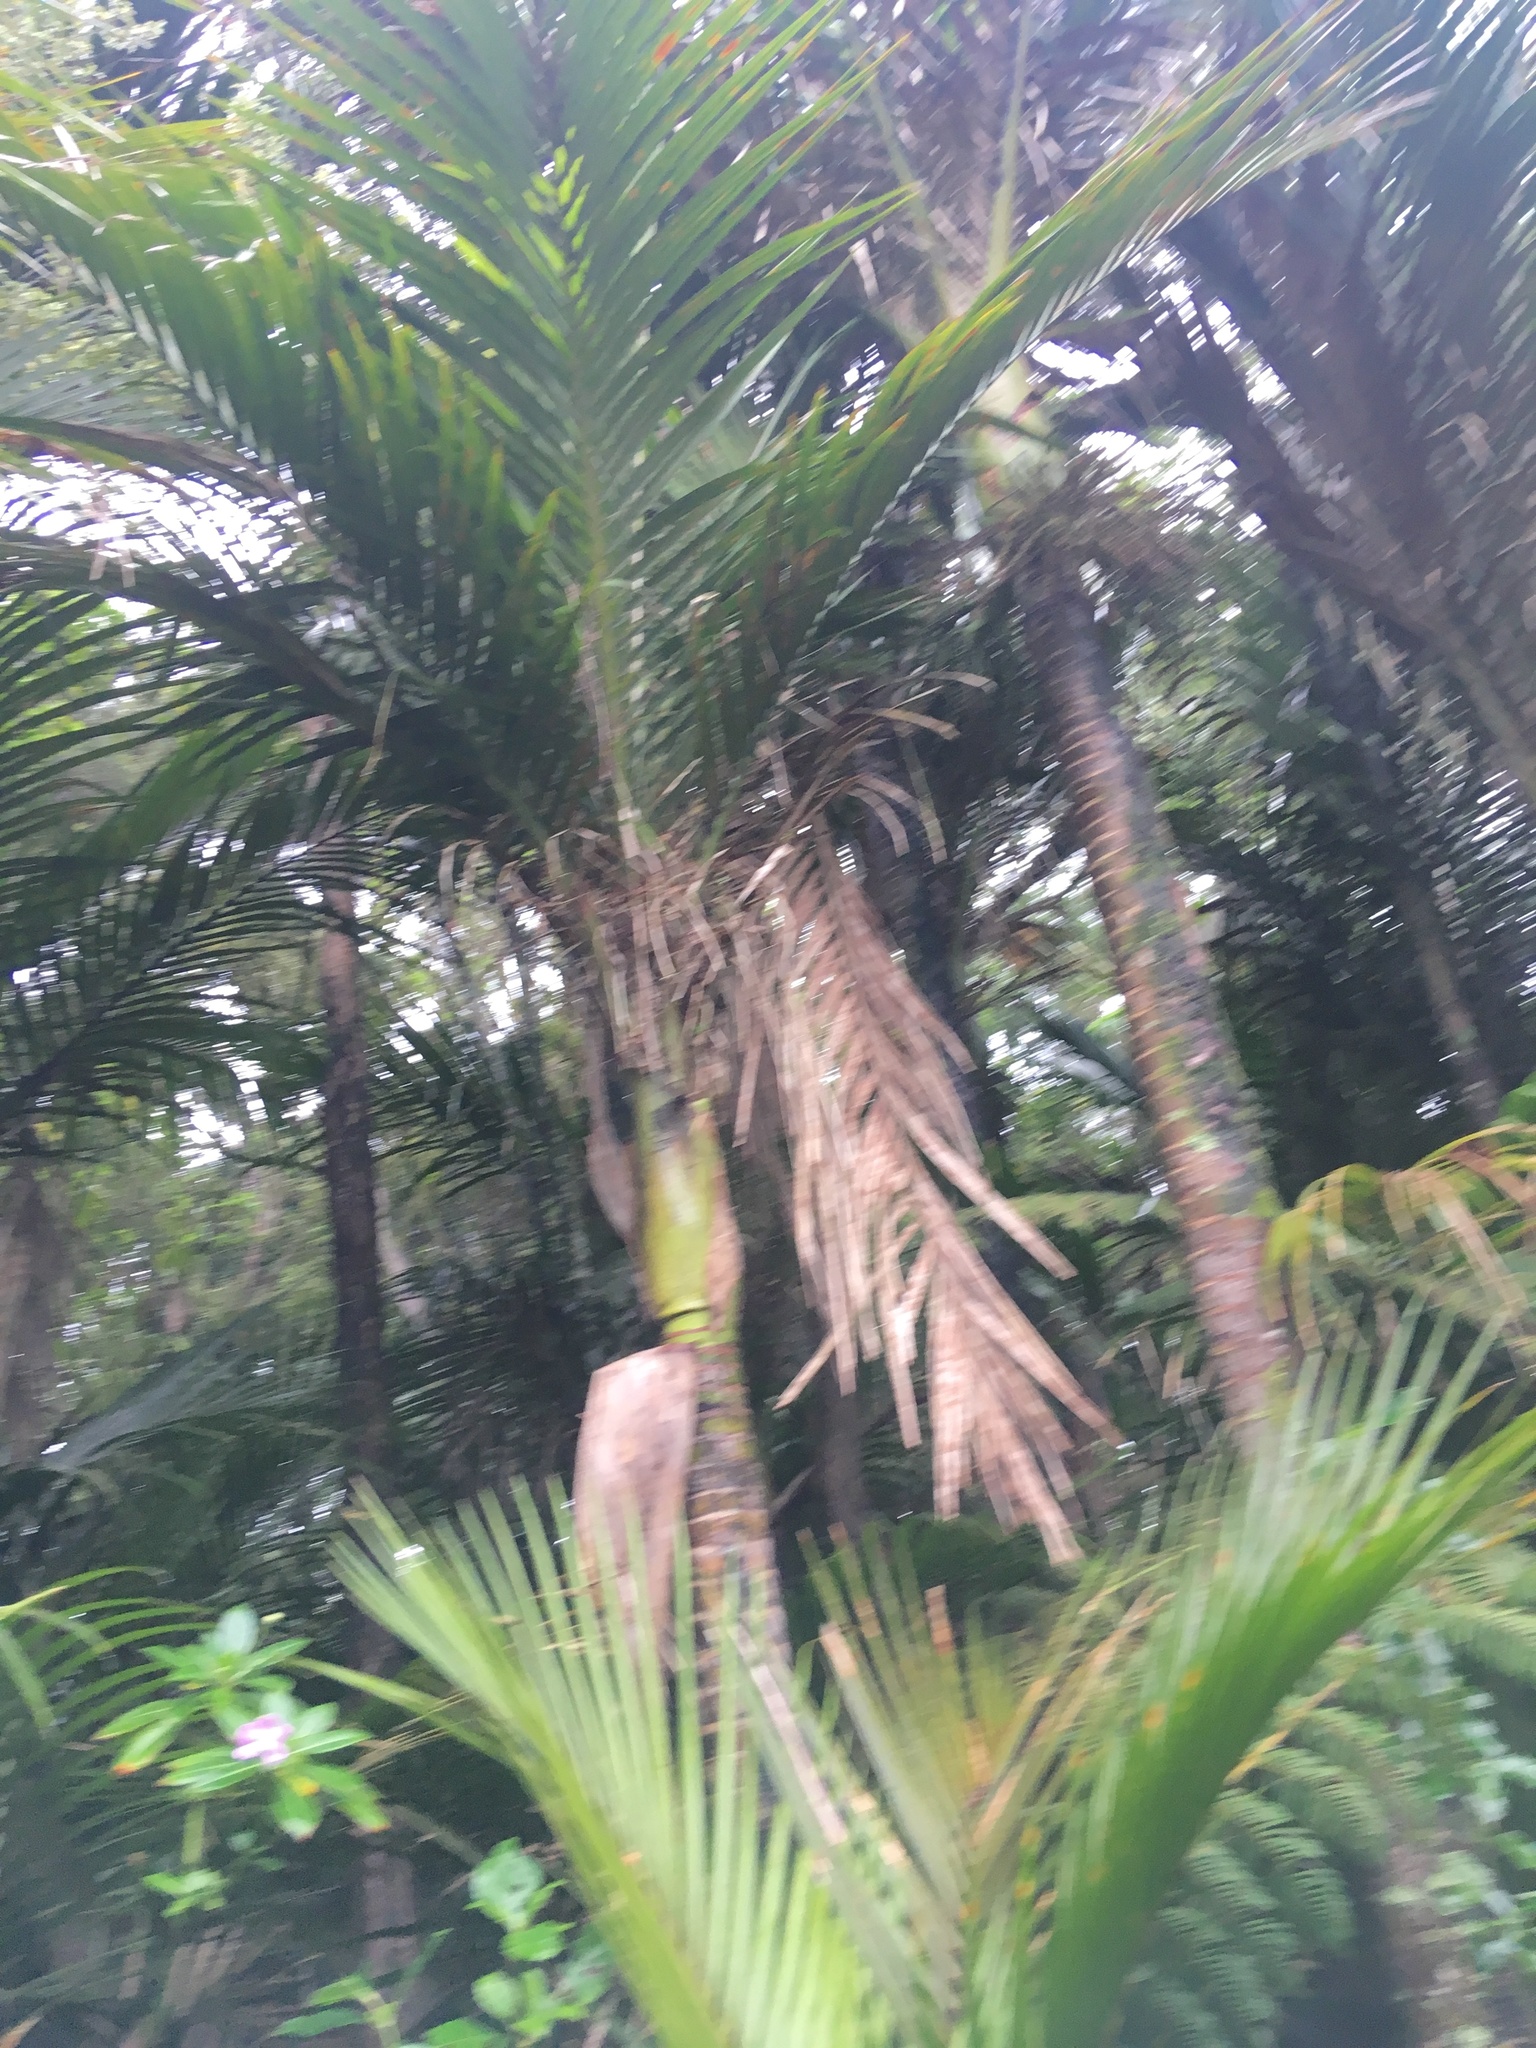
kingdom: Plantae
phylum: Tracheophyta
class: Liliopsida
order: Arecales
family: Arecaceae
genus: Rhopalostylis
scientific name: Rhopalostylis sapida
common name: Feather-duster palm
